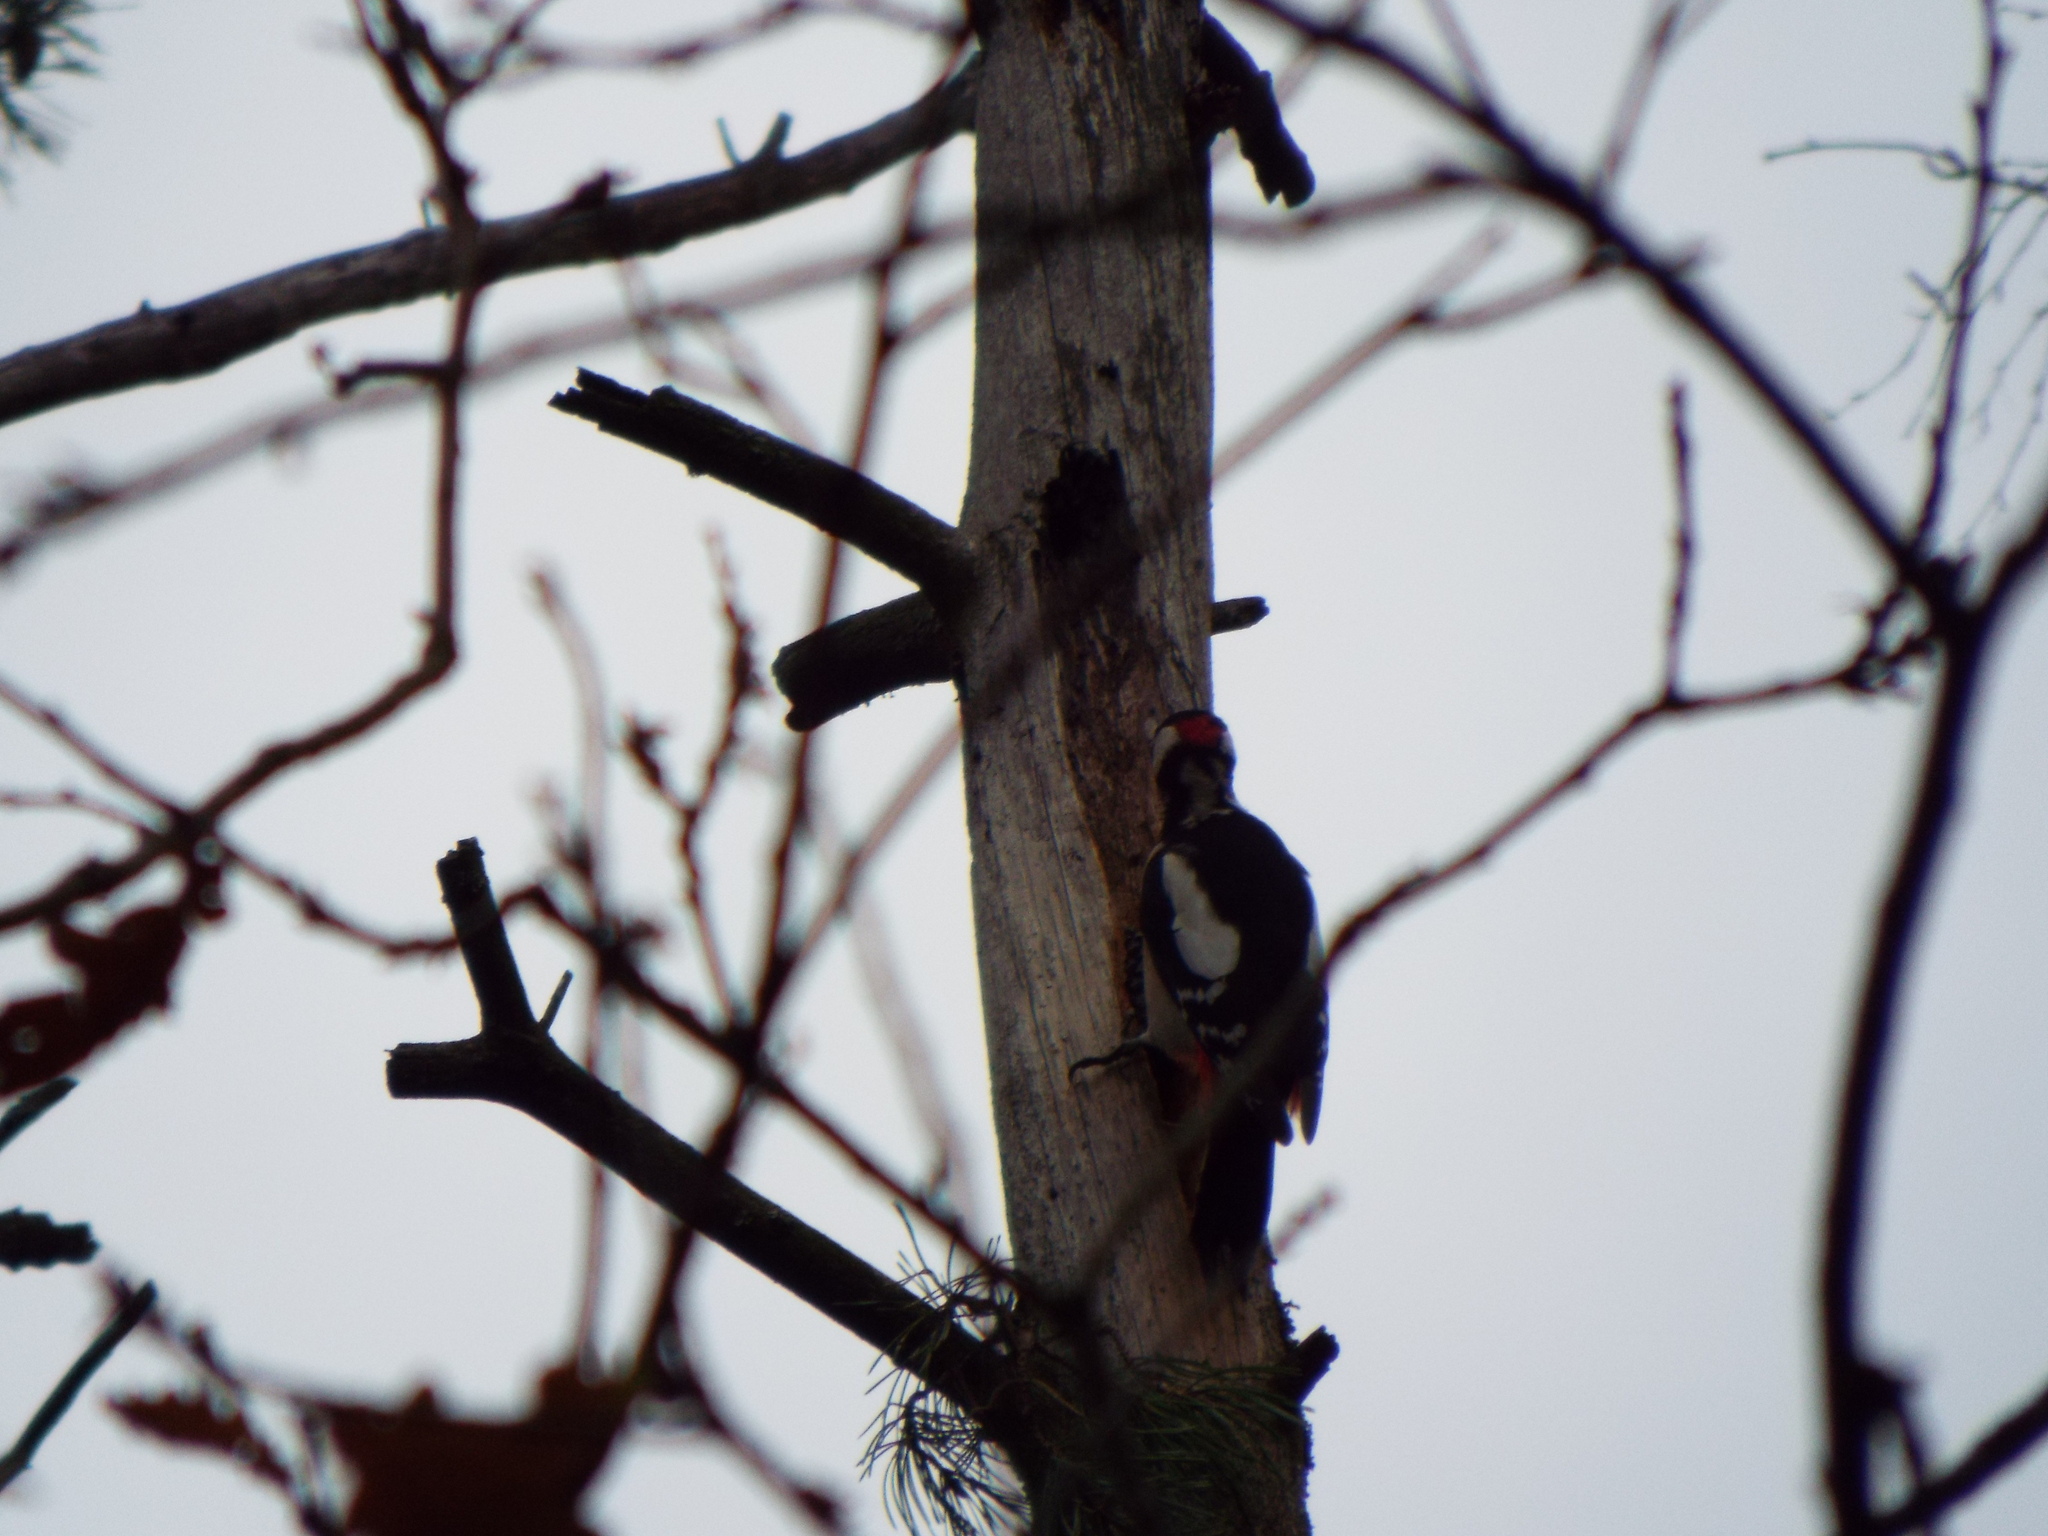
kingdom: Animalia
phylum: Chordata
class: Aves
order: Piciformes
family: Picidae
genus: Dendrocopos
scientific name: Dendrocopos major
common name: Great spotted woodpecker
